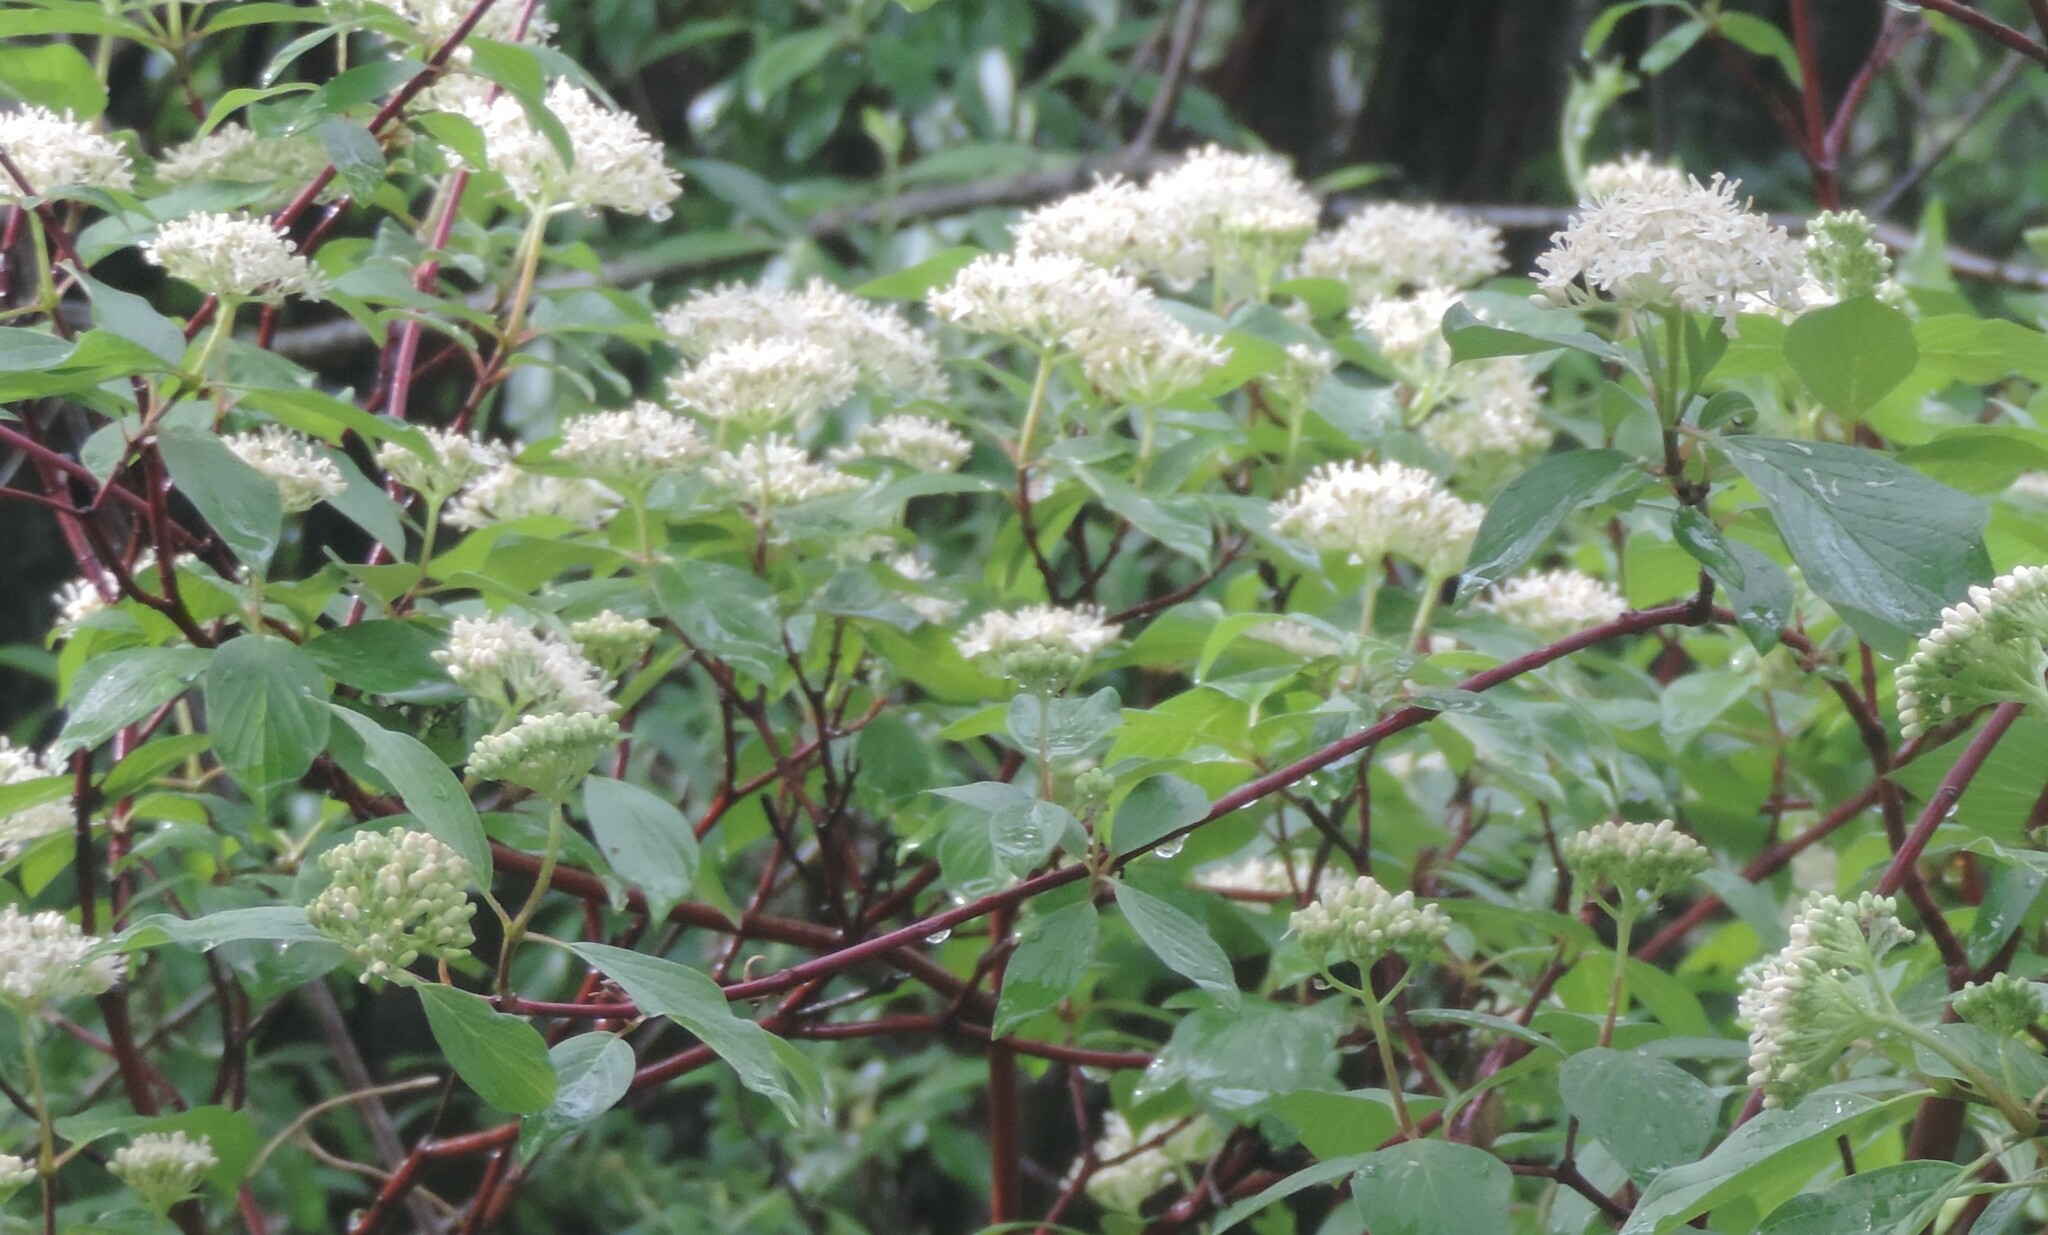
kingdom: Plantae
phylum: Tracheophyta
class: Magnoliopsida
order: Cornales
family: Cornaceae
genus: Cornus
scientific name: Cornus sericea
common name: Red-osier dogwood
